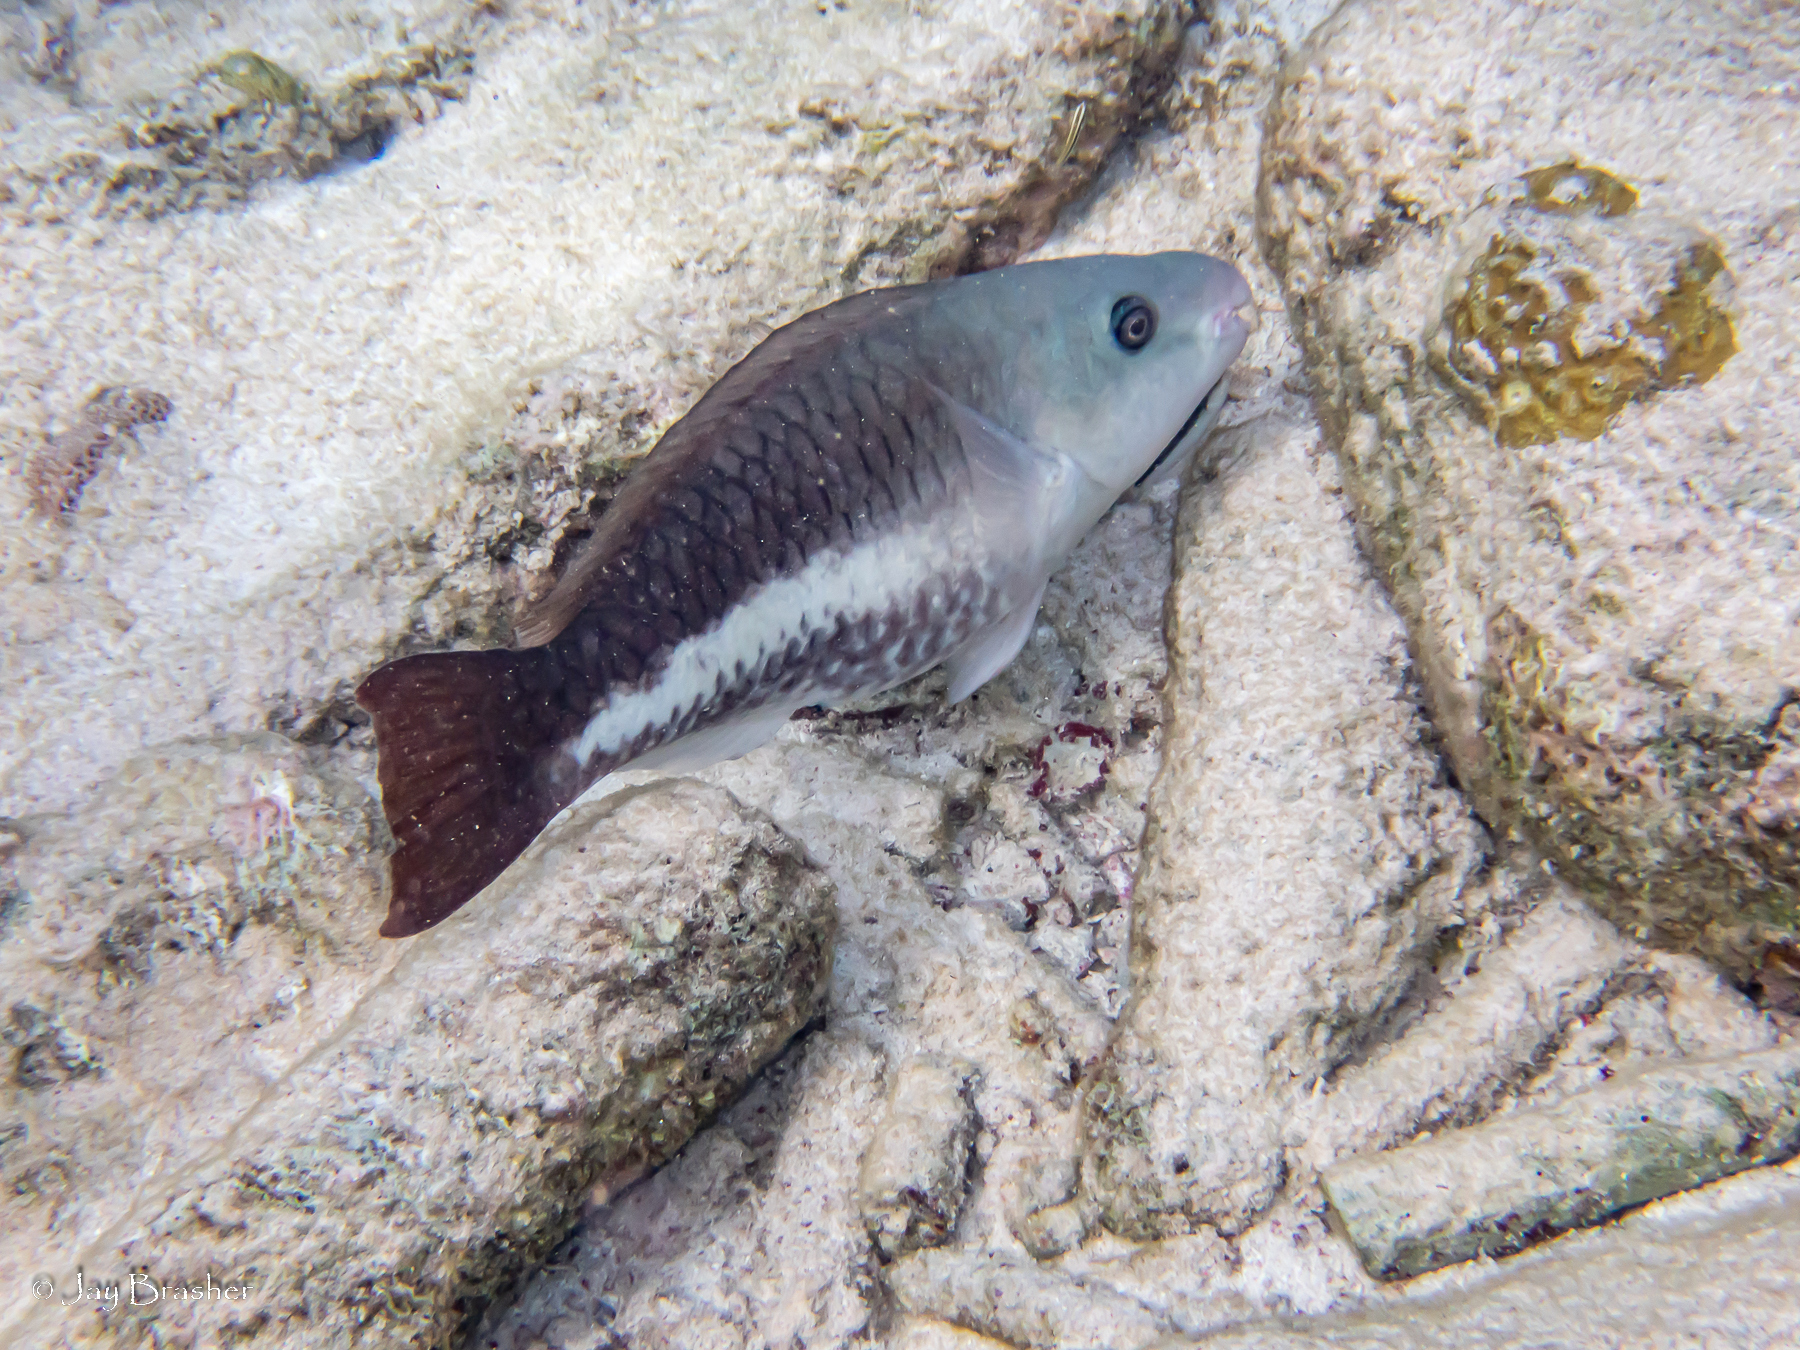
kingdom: Animalia
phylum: Chordata
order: Perciformes
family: Scaridae
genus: Scarus
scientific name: Scarus vetula
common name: Queen parrotfish
